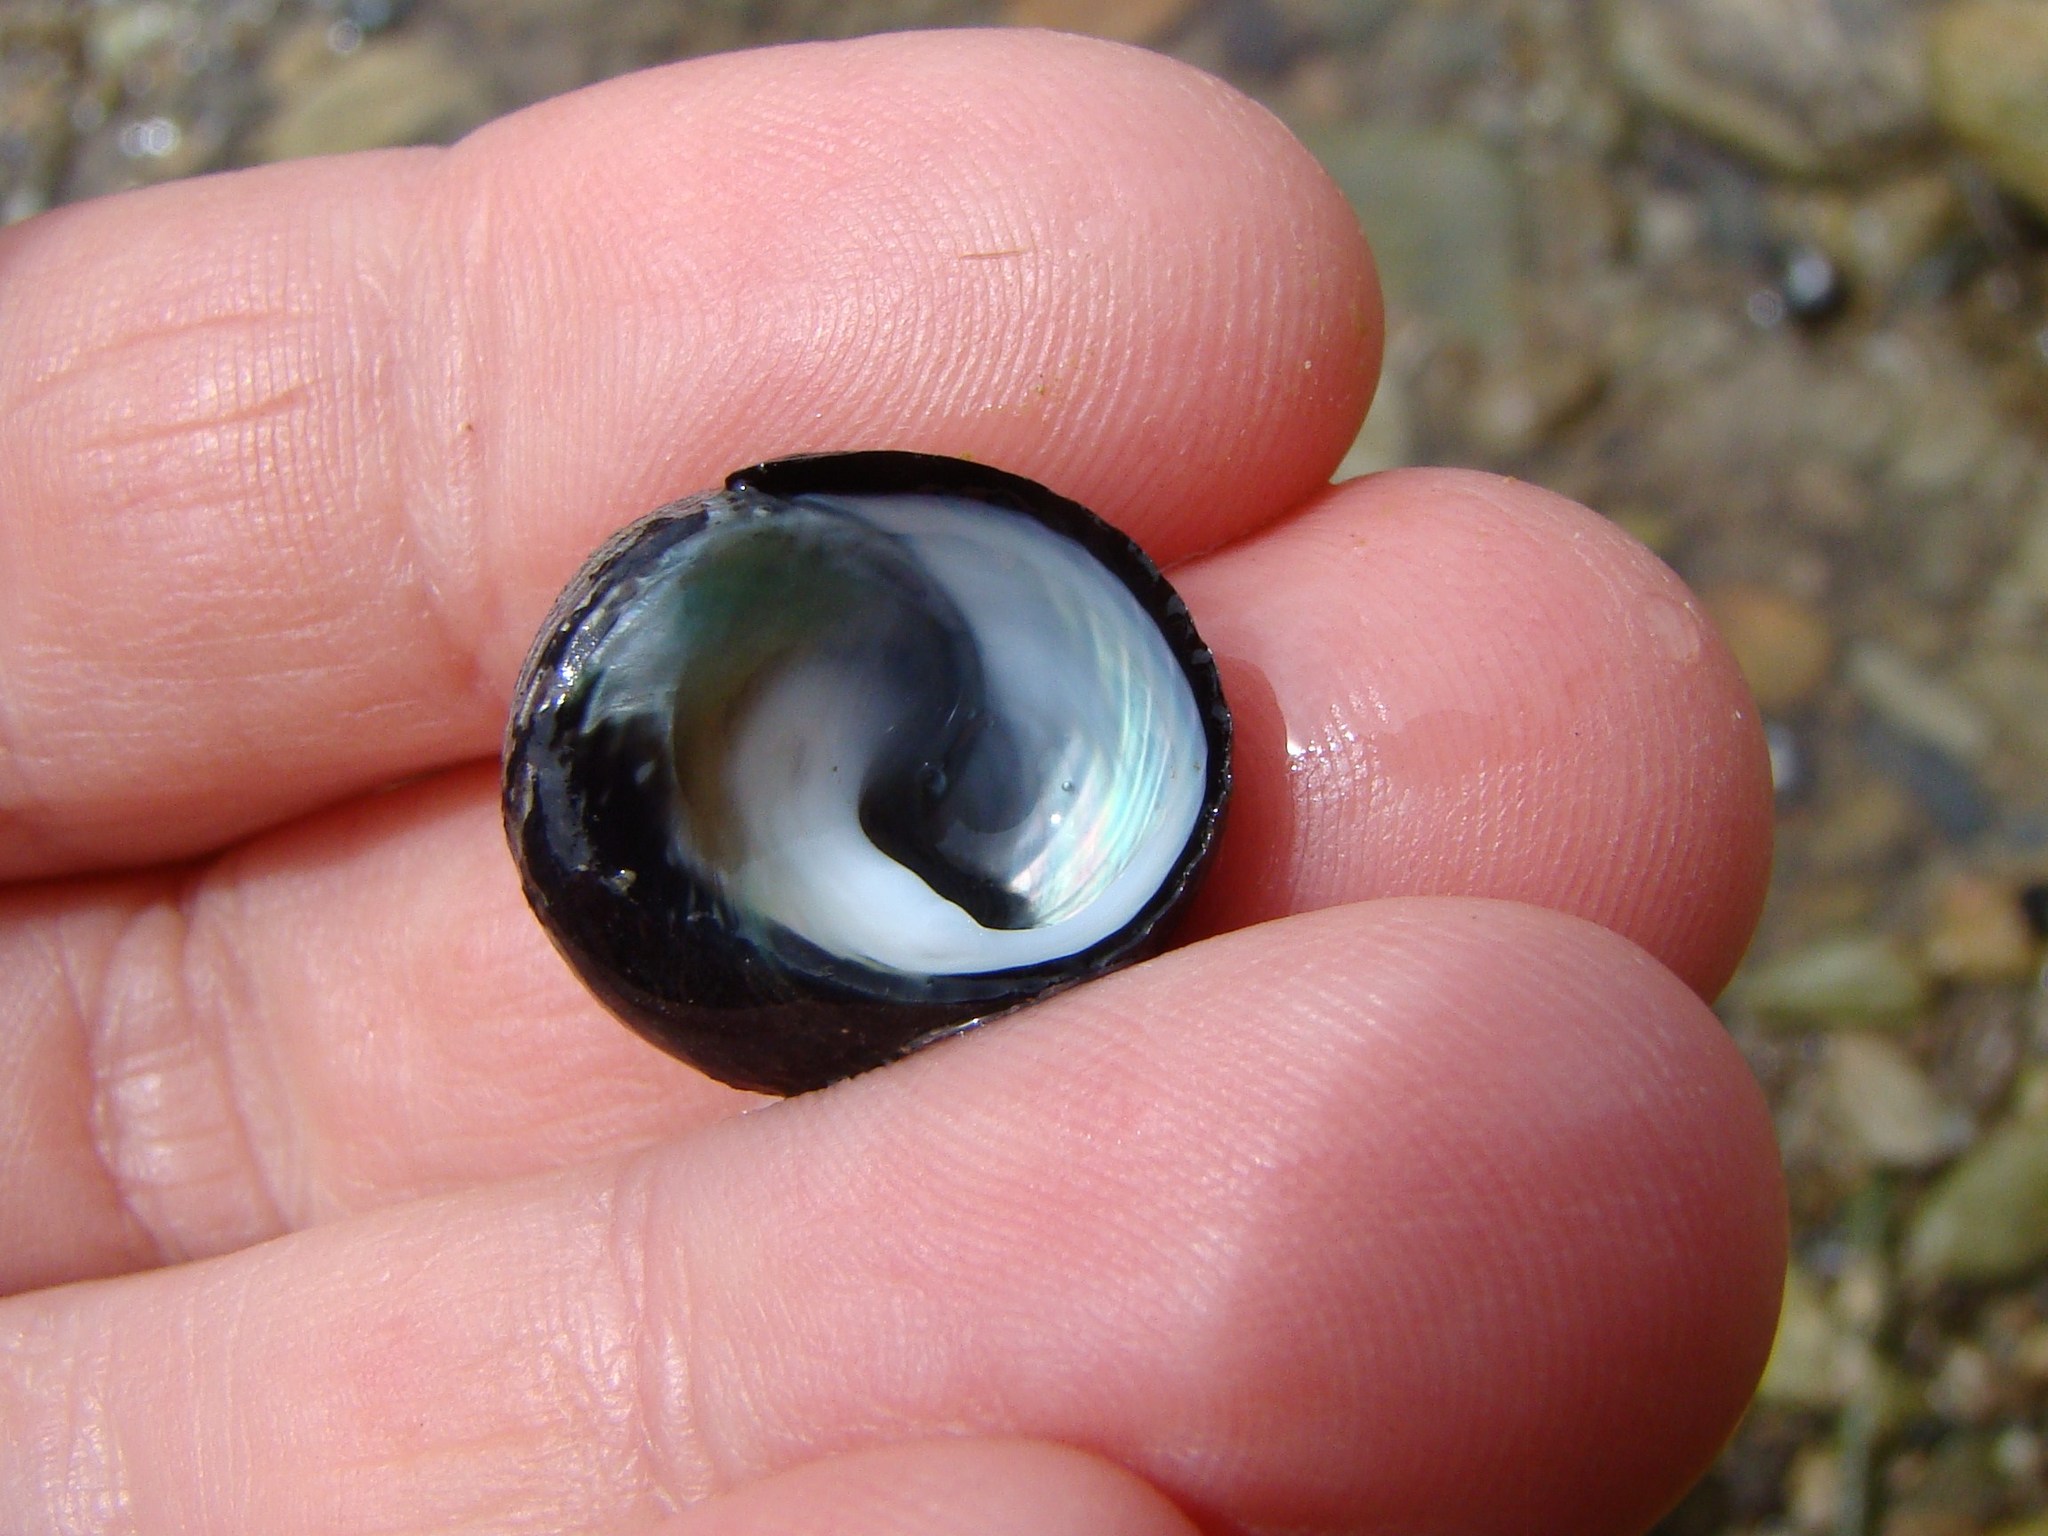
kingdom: Animalia
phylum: Mollusca
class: Gastropoda
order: Trochida
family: Trochidae
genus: Diloma
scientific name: Diloma zelandicum
